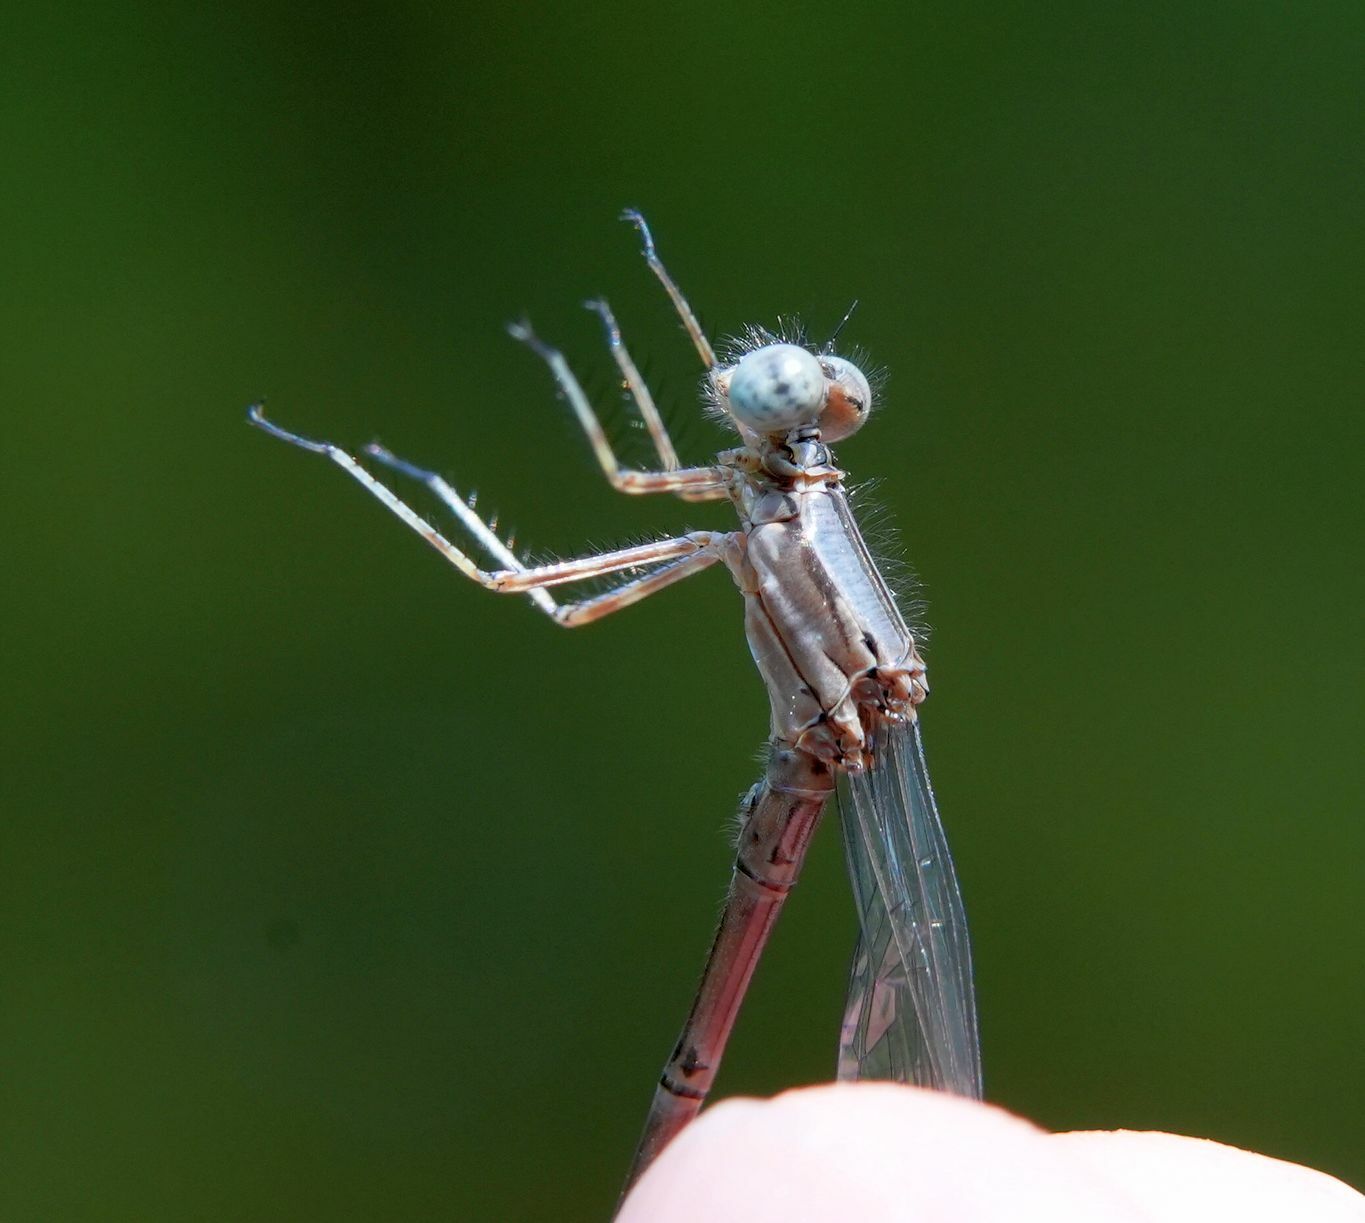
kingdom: Animalia
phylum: Arthropoda
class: Insecta
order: Odonata
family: Coenagrionidae
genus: Argia
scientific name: Argia fumipennis
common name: Variable dancer
